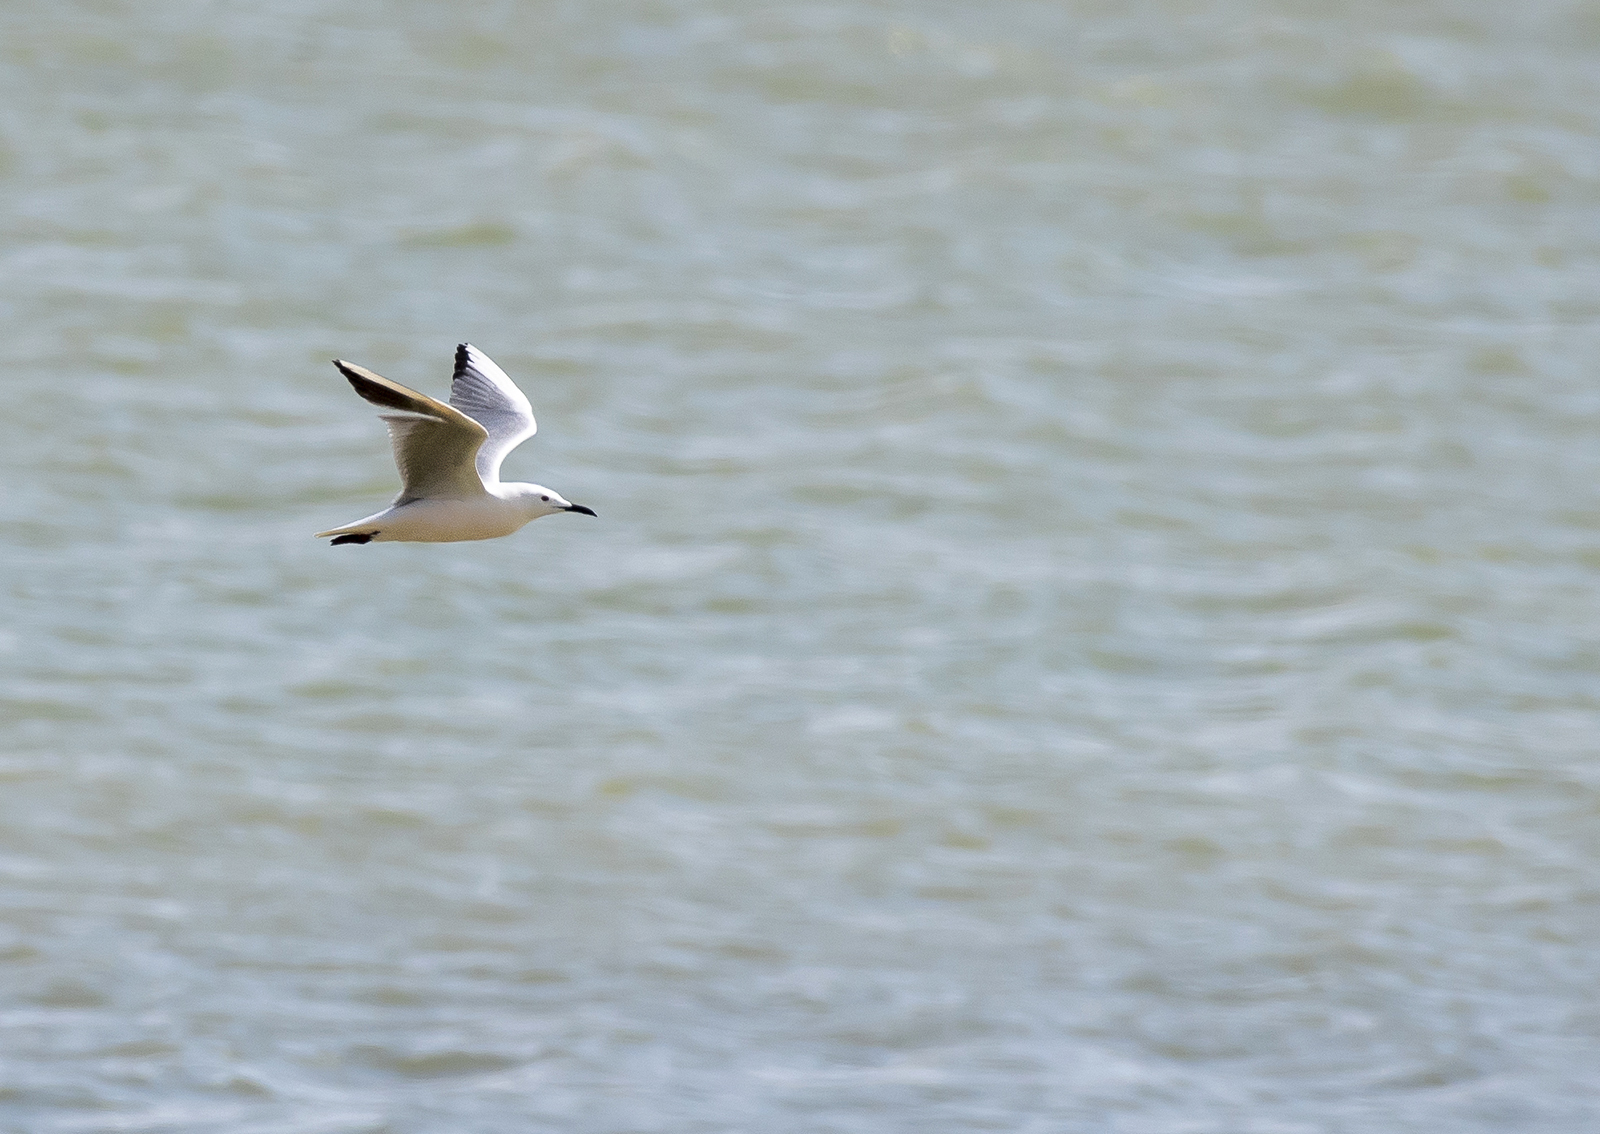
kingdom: Animalia
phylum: Chordata
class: Aves
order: Charadriiformes
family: Laridae
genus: Chroicocephalus
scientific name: Chroicocephalus genei
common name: Slender-billed gull
